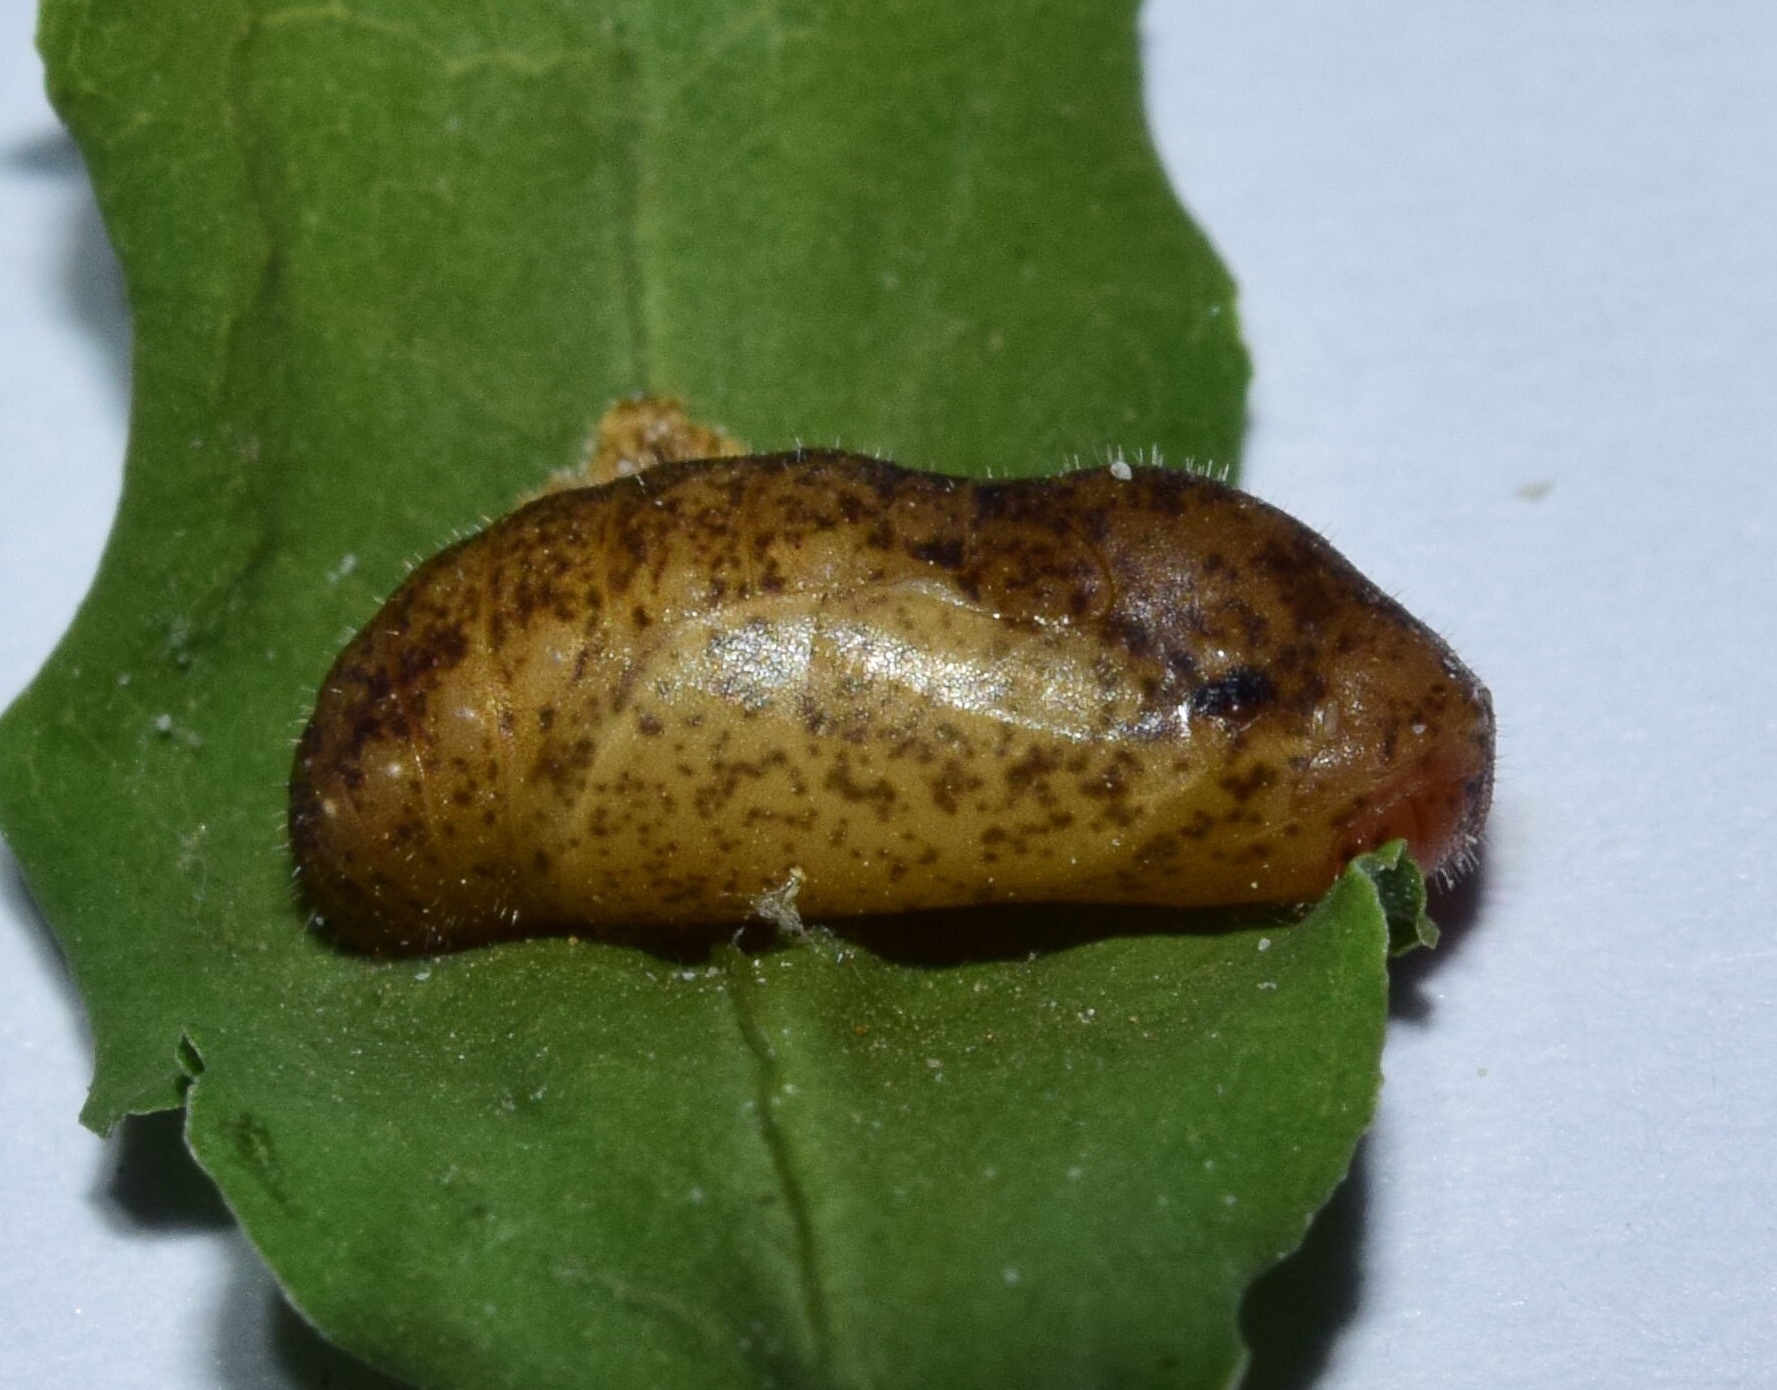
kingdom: Animalia
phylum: Arthropoda
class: Insecta
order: Lepidoptera
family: Lycaenidae
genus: Leptotes
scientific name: Leptotes
